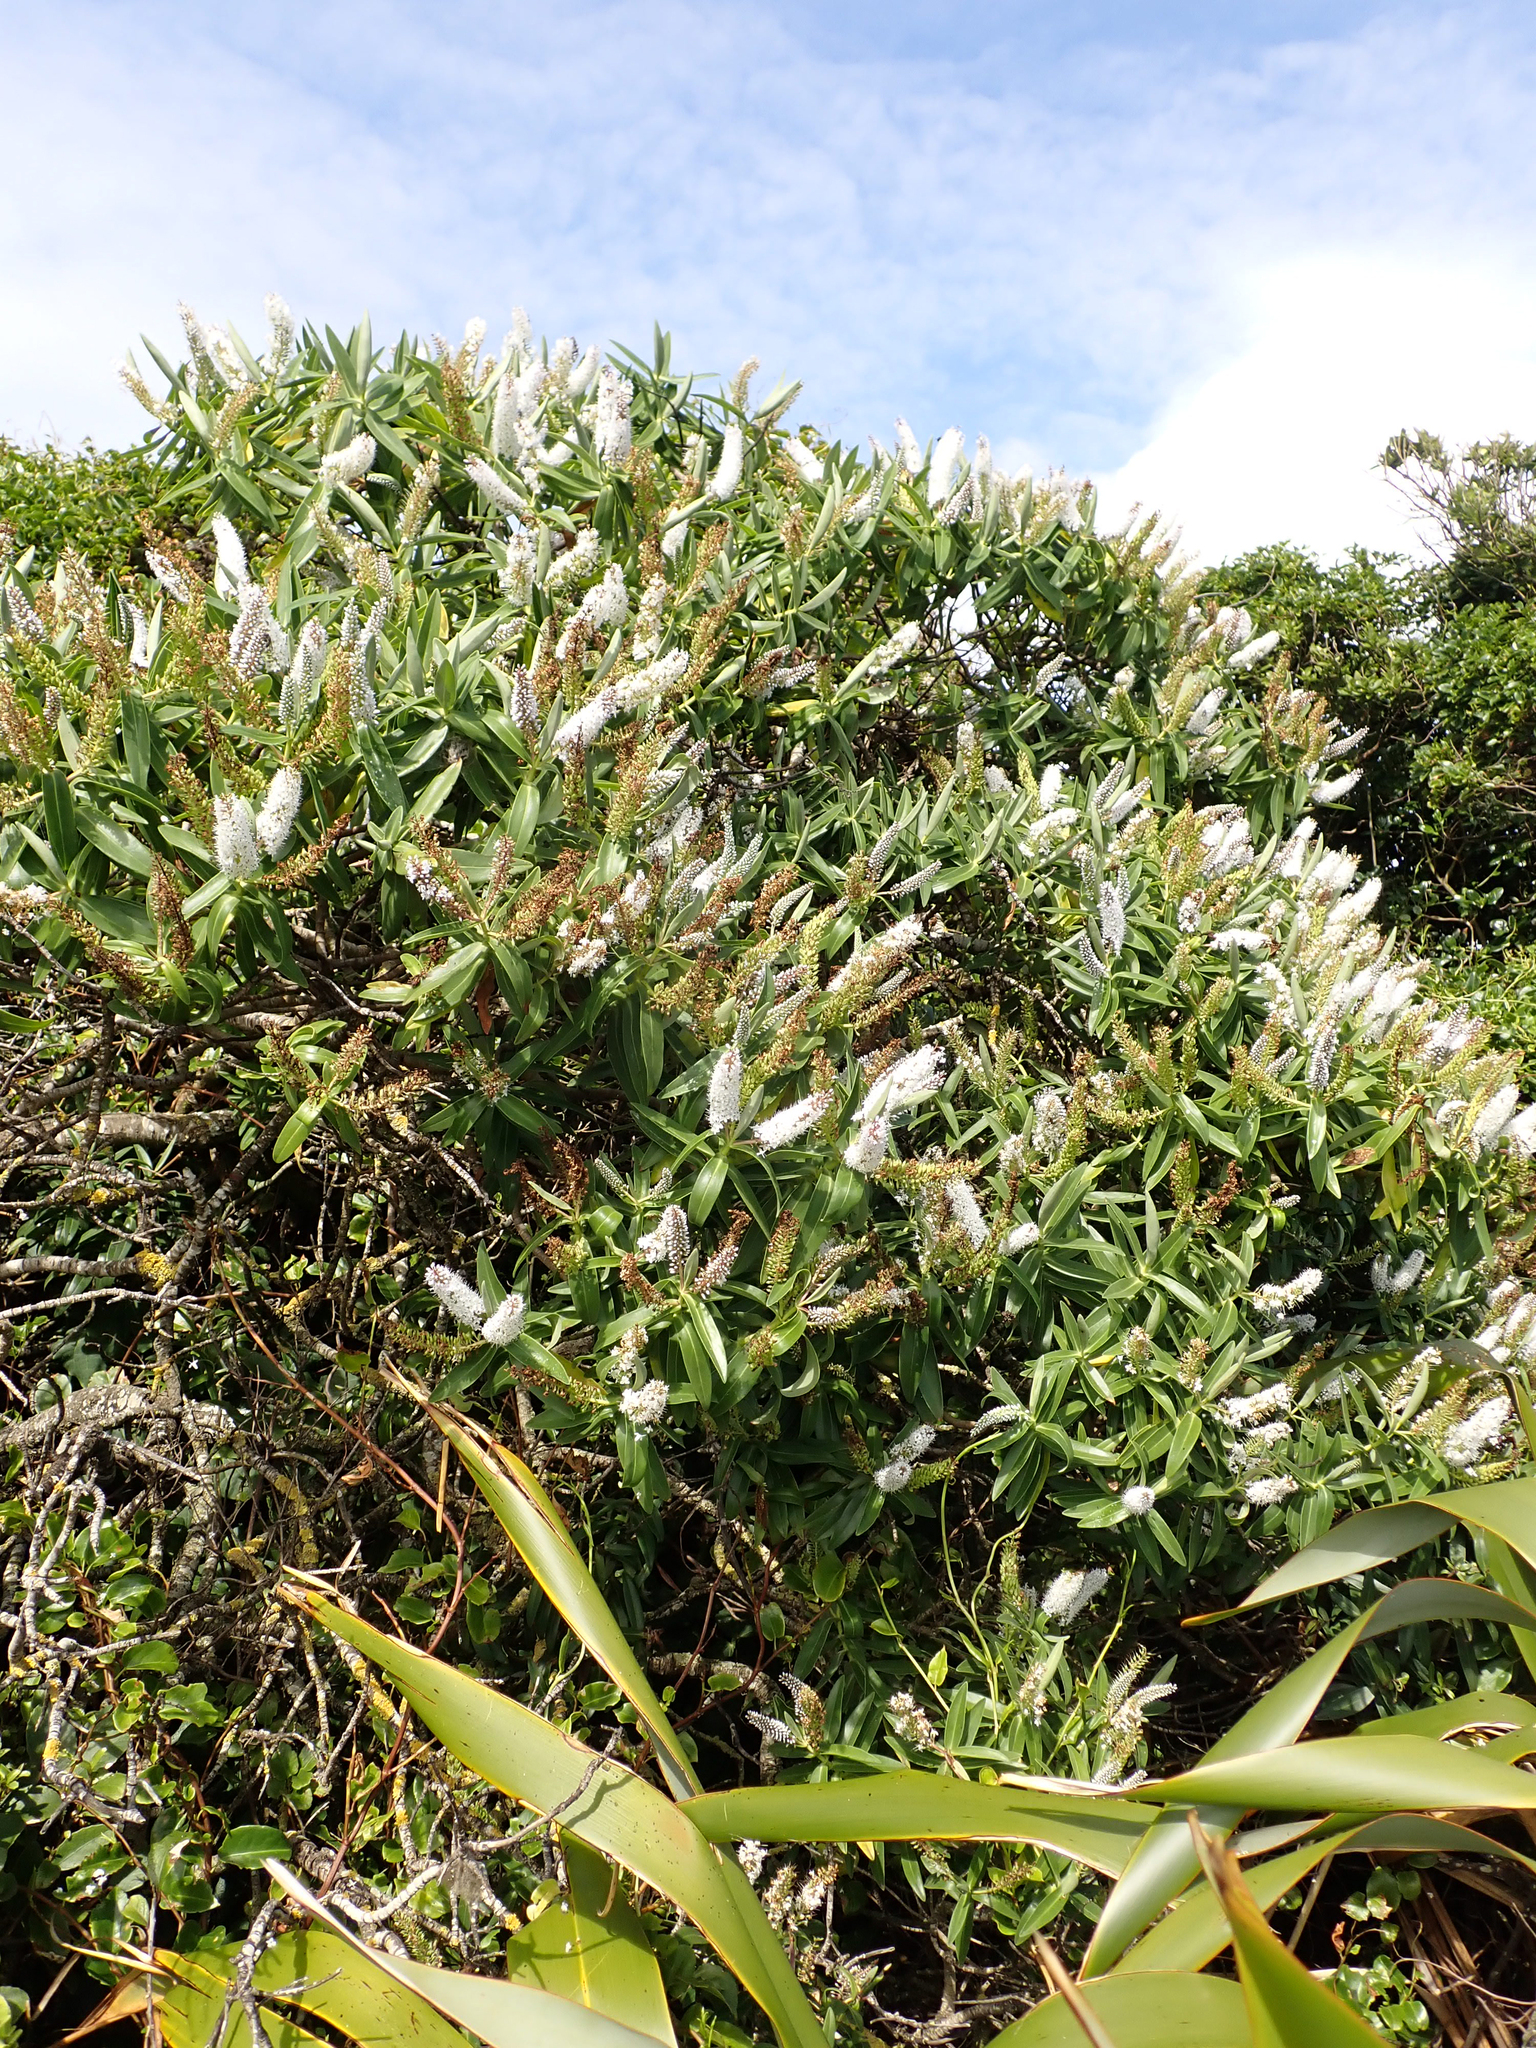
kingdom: Plantae
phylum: Tracheophyta
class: Magnoliopsida
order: Lamiales
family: Plantaginaceae
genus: Veronica
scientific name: Veronica dieffenbachii
